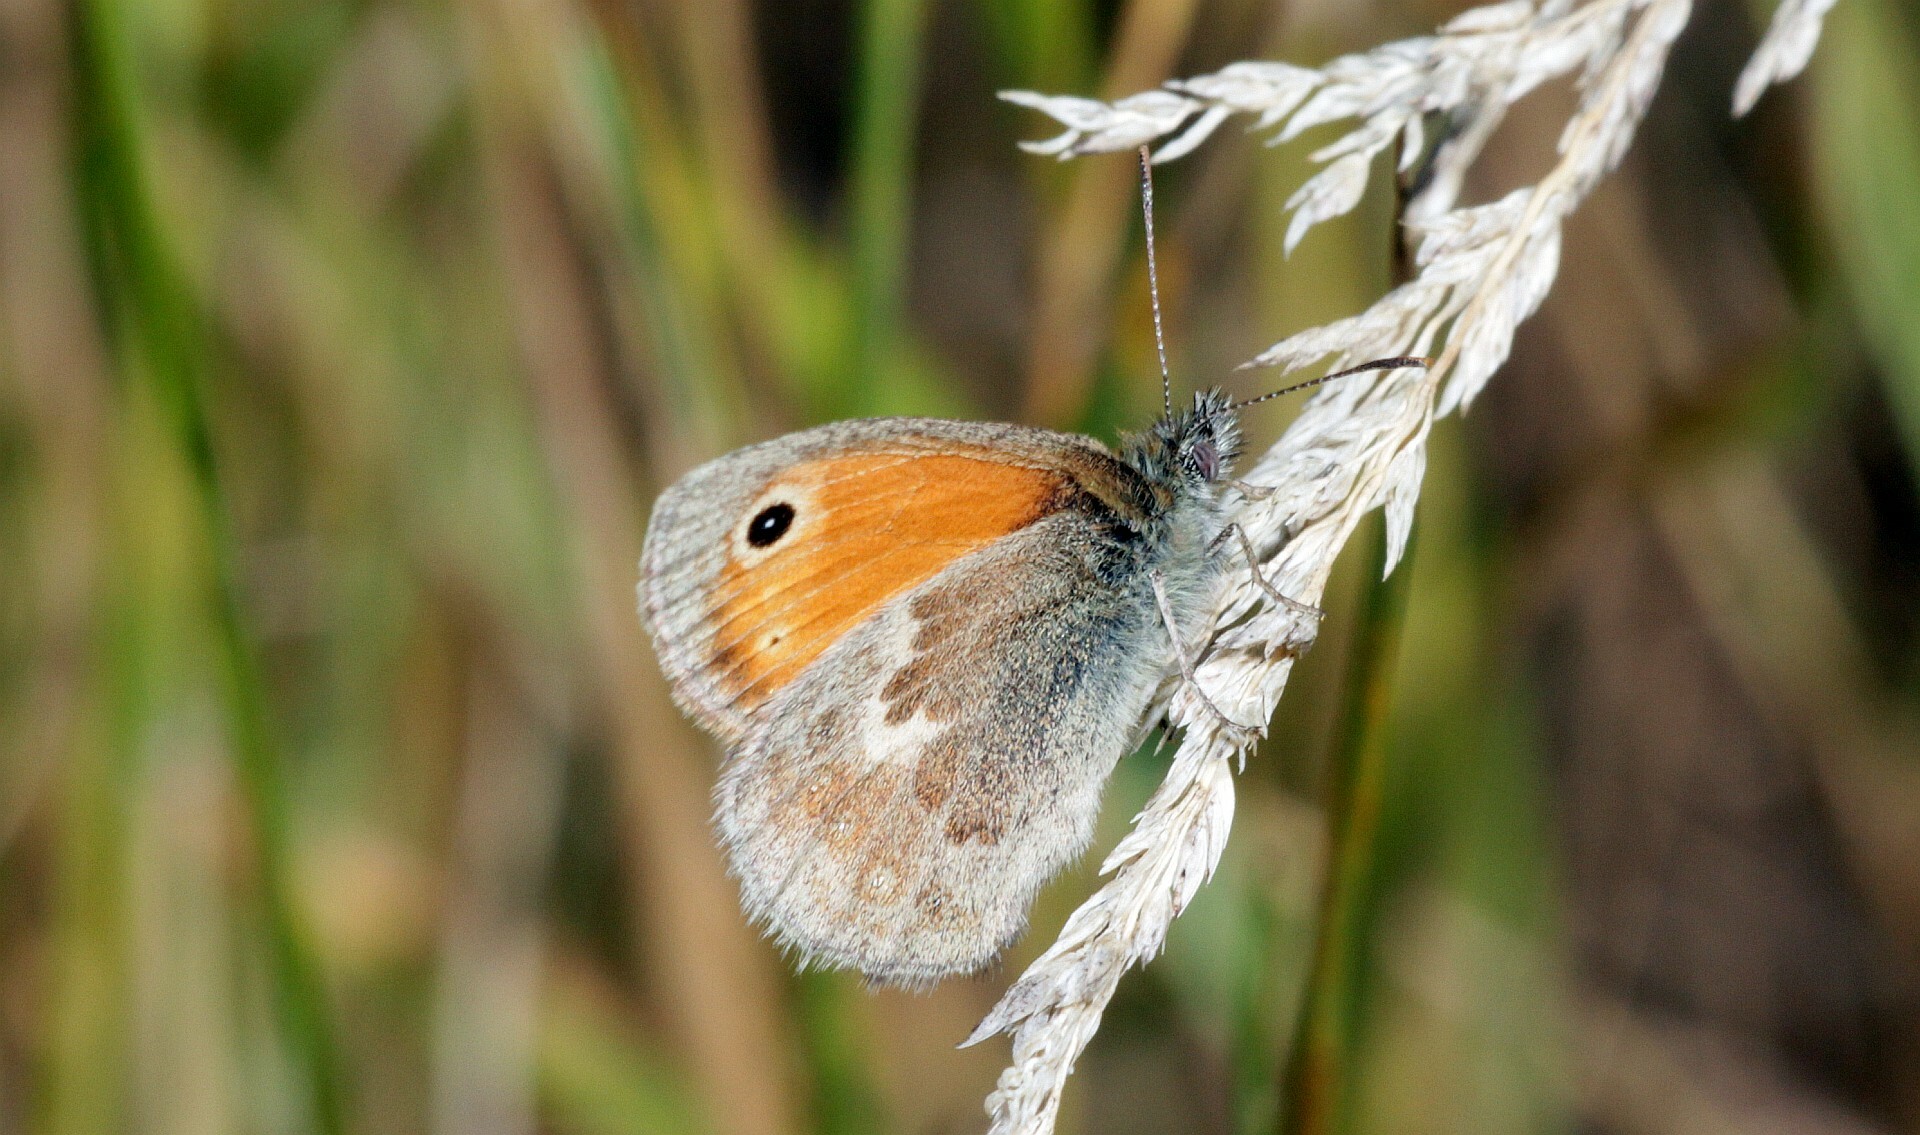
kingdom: Animalia
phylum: Arthropoda
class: Insecta
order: Lepidoptera
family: Nymphalidae
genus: Coenonympha
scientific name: Coenonympha pamphilus
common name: Small heath
